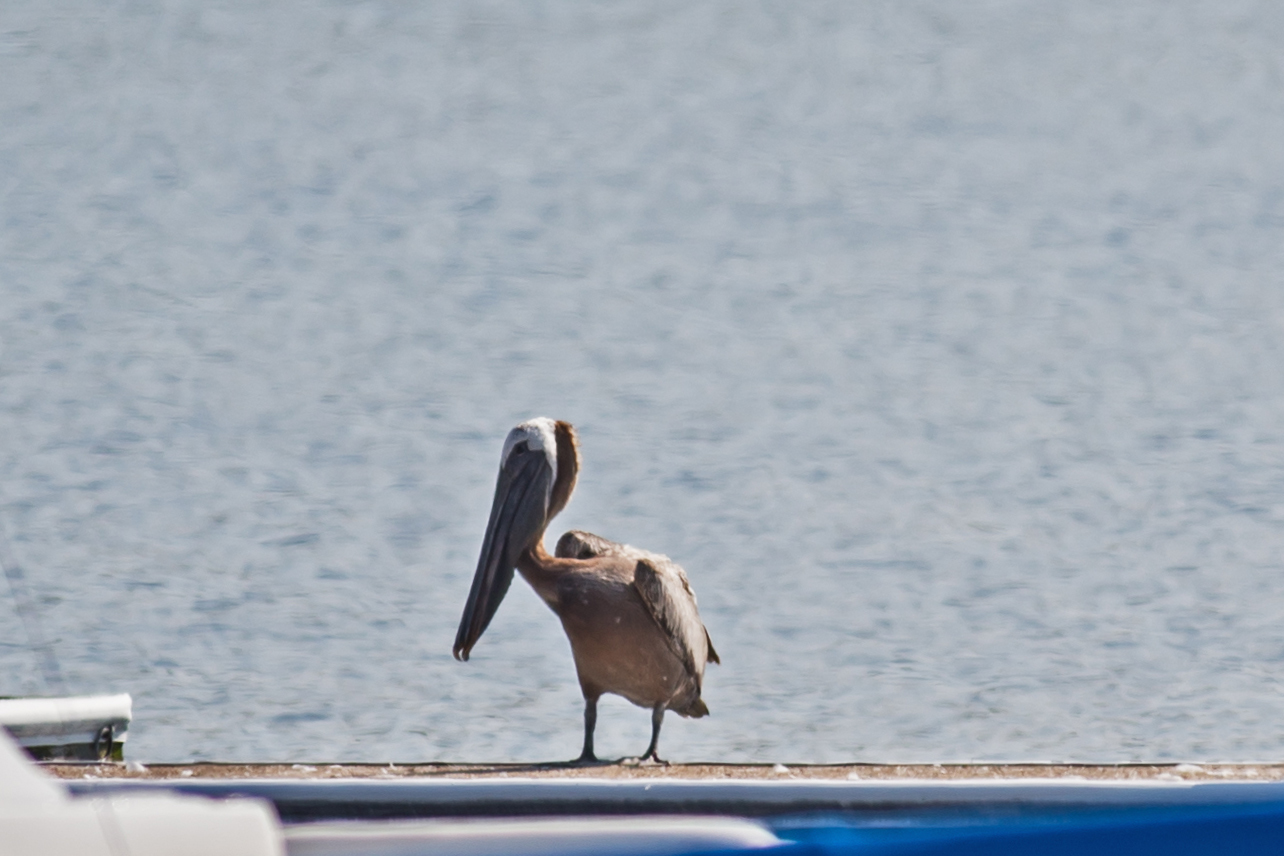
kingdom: Animalia
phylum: Chordata
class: Aves
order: Pelecaniformes
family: Pelecanidae
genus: Pelecanus
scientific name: Pelecanus occidentalis
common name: Brown pelican
